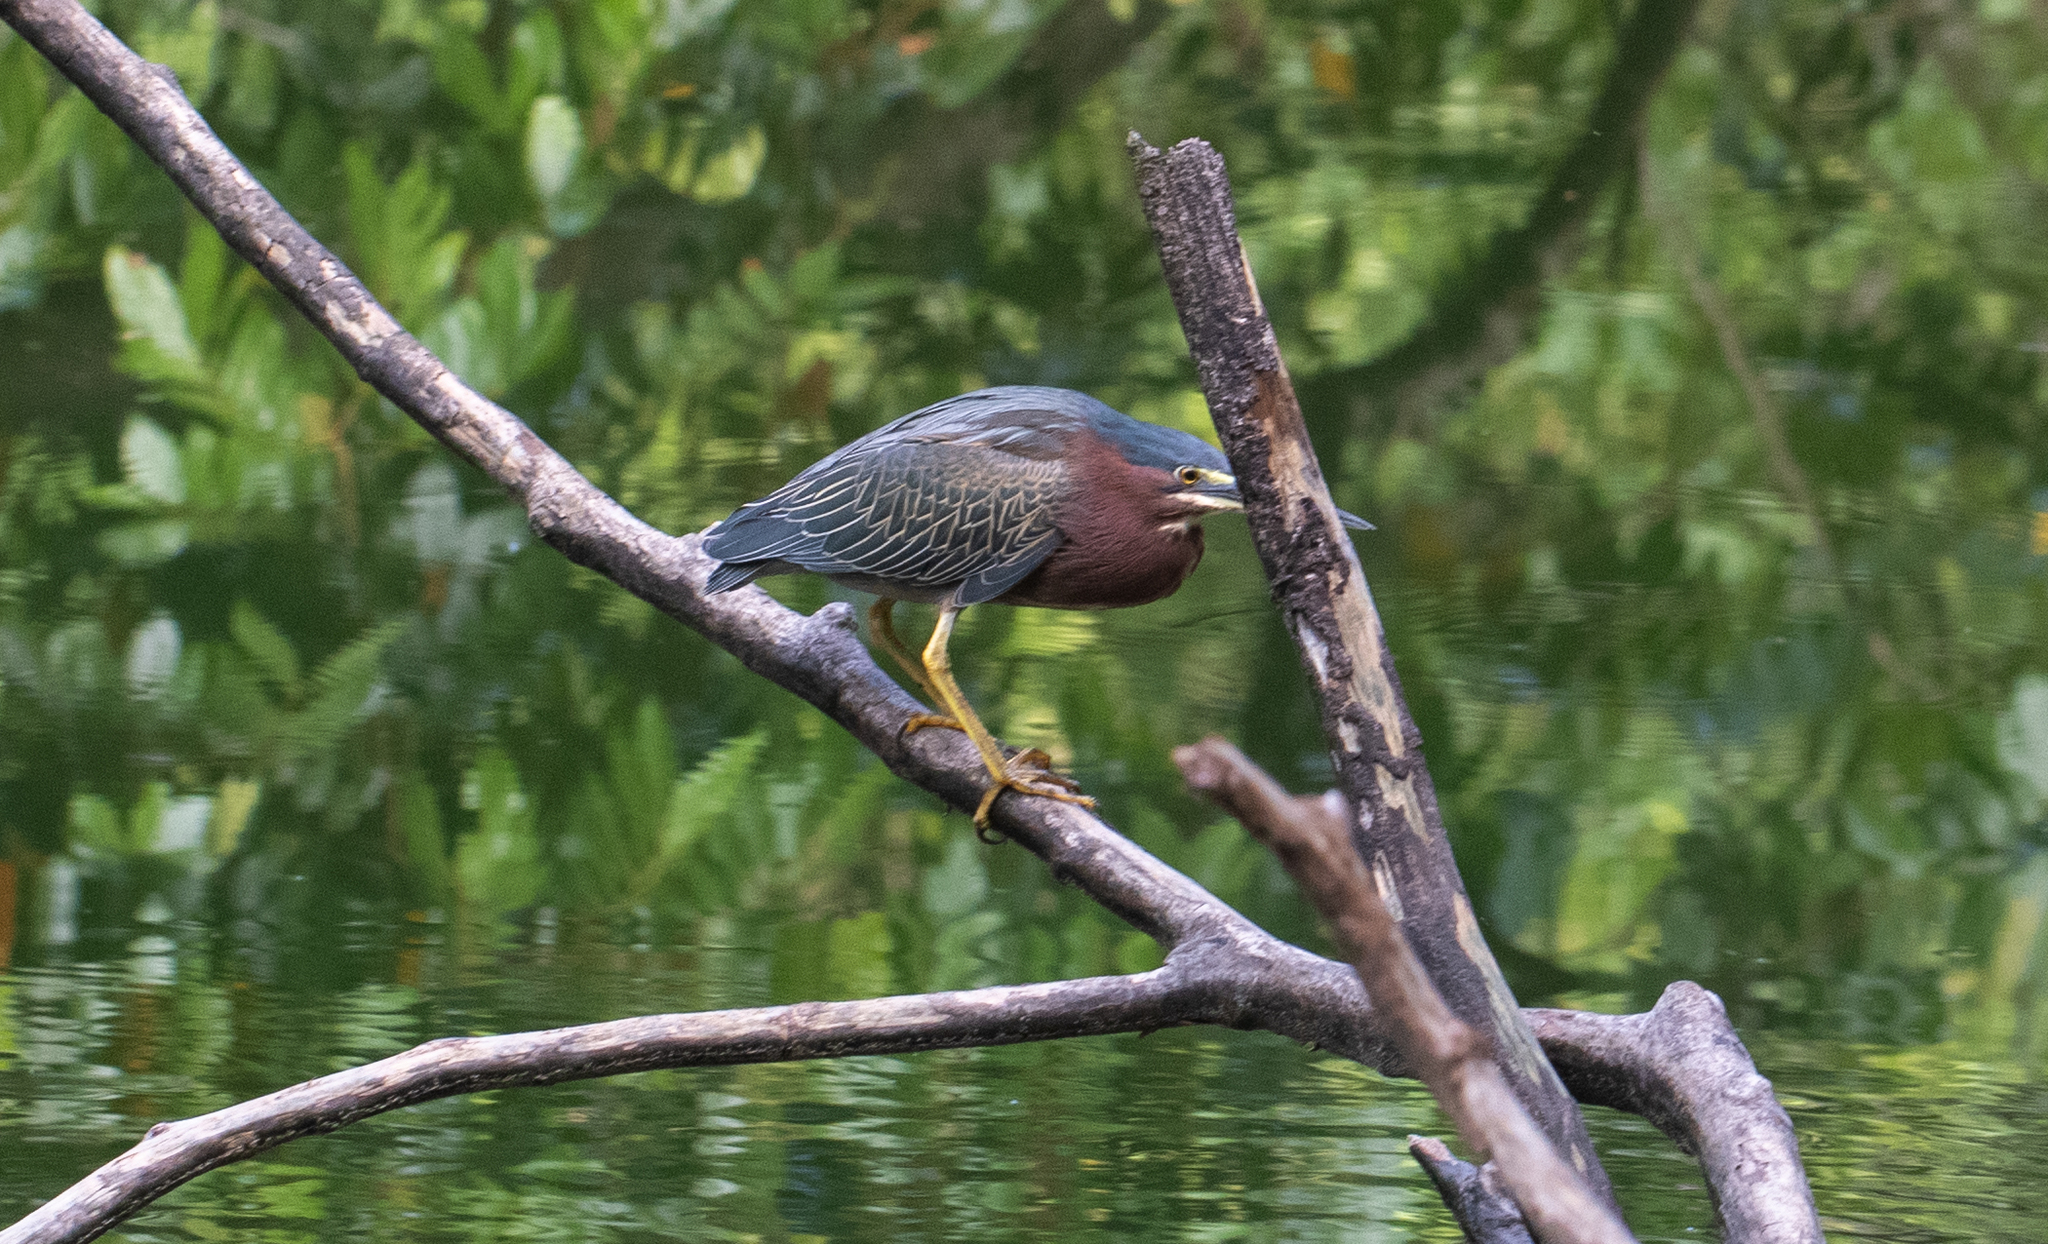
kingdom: Animalia
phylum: Chordata
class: Aves
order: Pelecaniformes
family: Ardeidae
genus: Butorides
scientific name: Butorides virescens
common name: Green heron
